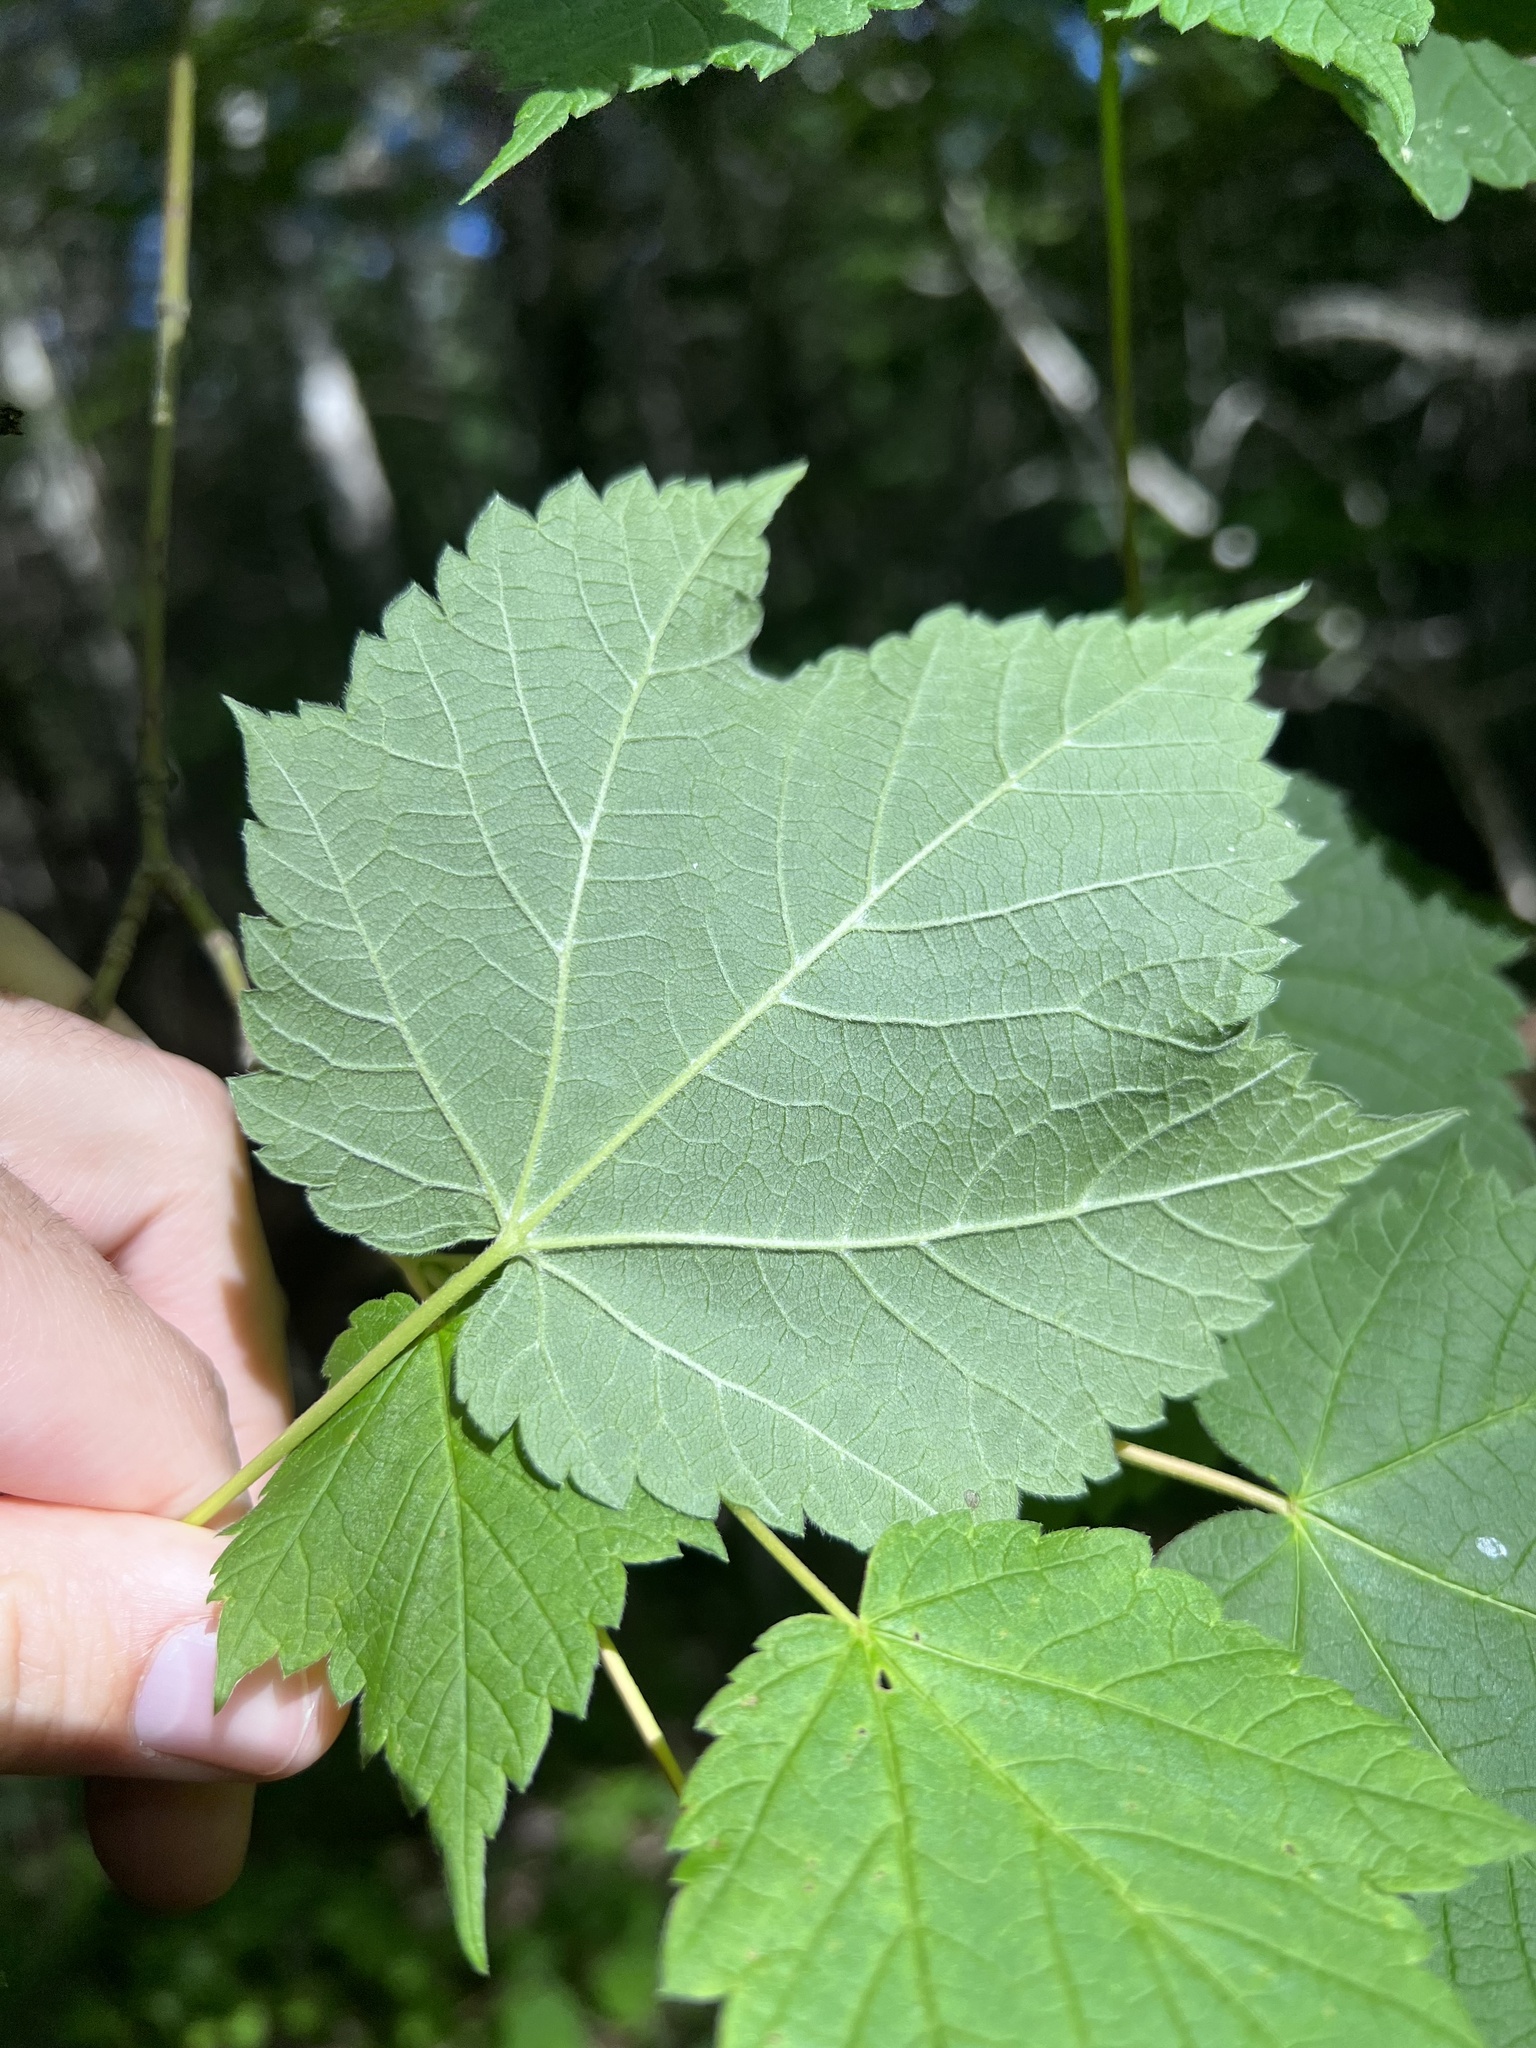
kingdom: Plantae
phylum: Tracheophyta
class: Magnoliopsida
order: Sapindales
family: Sapindaceae
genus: Acer
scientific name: Acer spicatum
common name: Mountain maple
